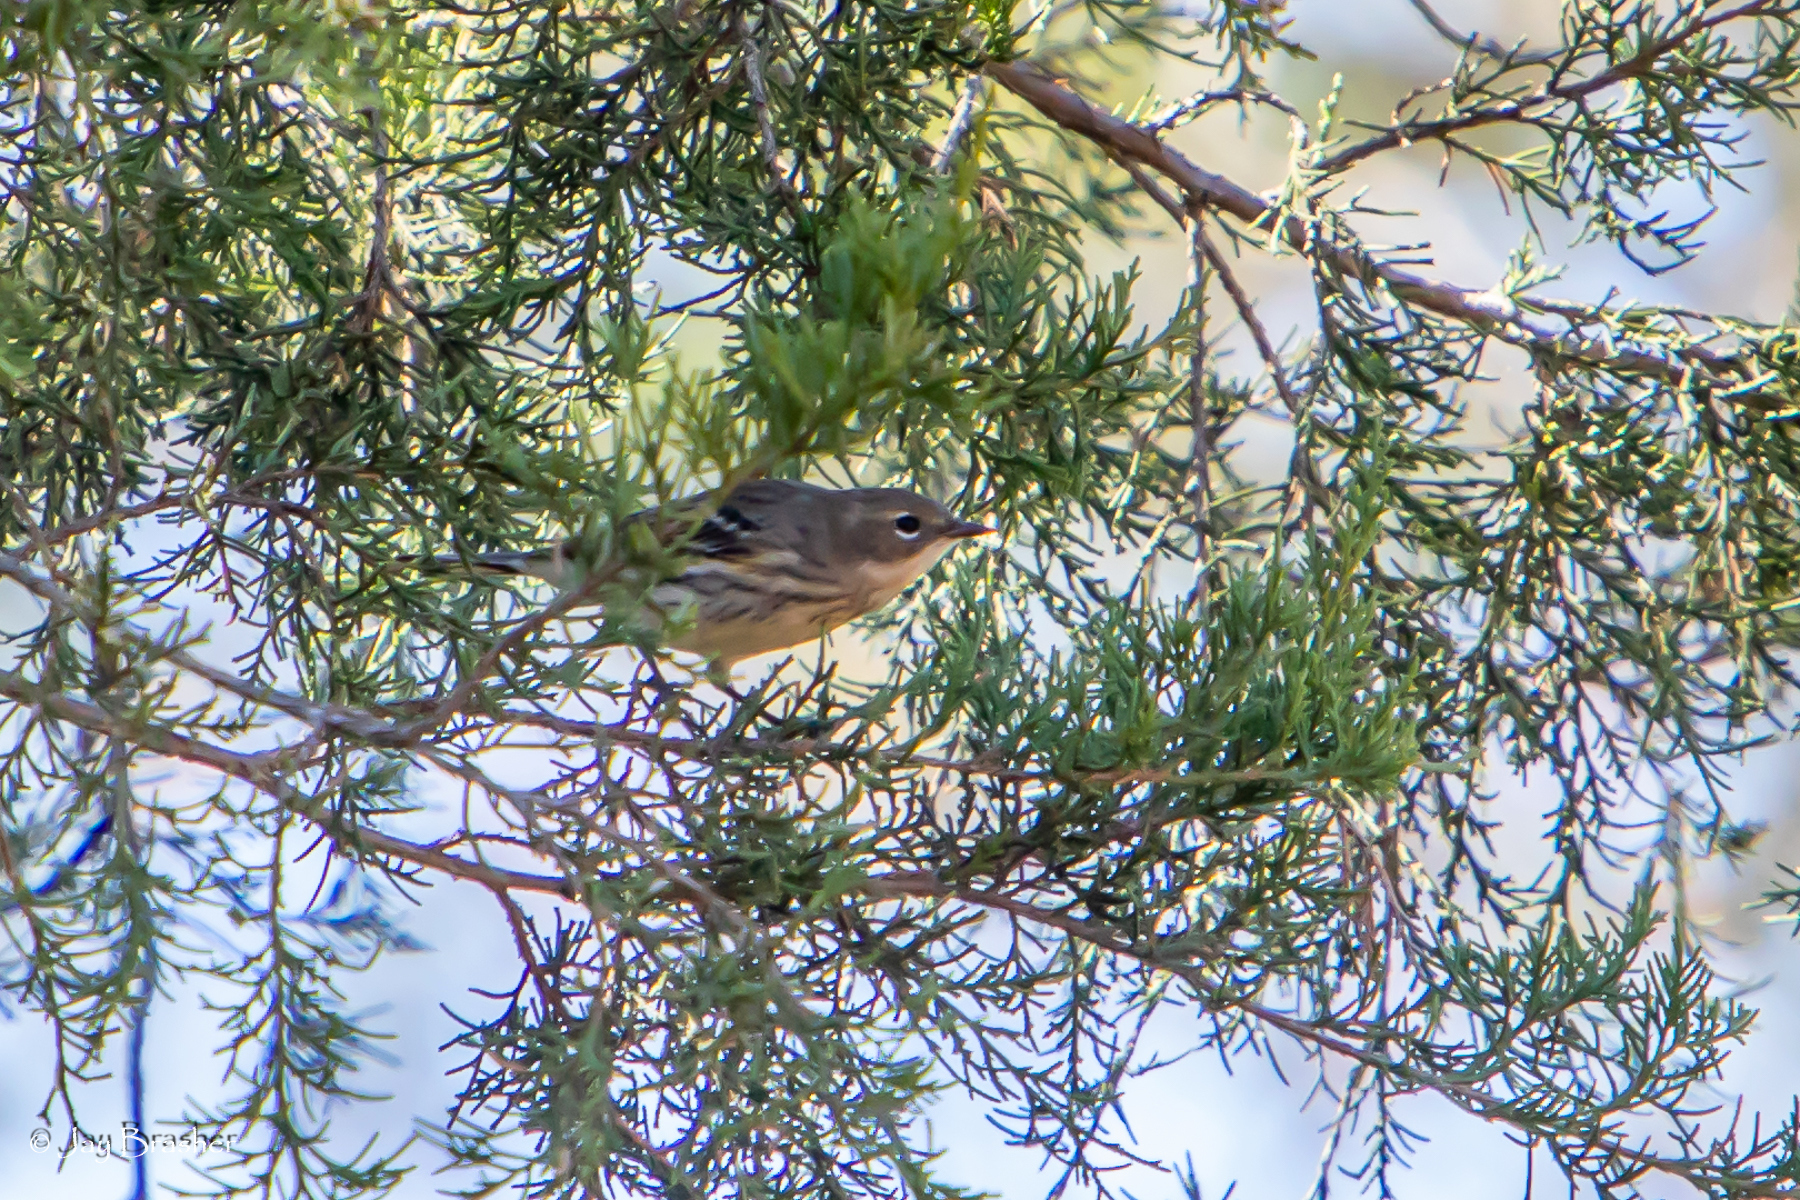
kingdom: Animalia
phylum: Chordata
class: Aves
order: Passeriformes
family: Parulidae
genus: Setophaga
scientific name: Setophaga coronata
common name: Myrtle warbler
